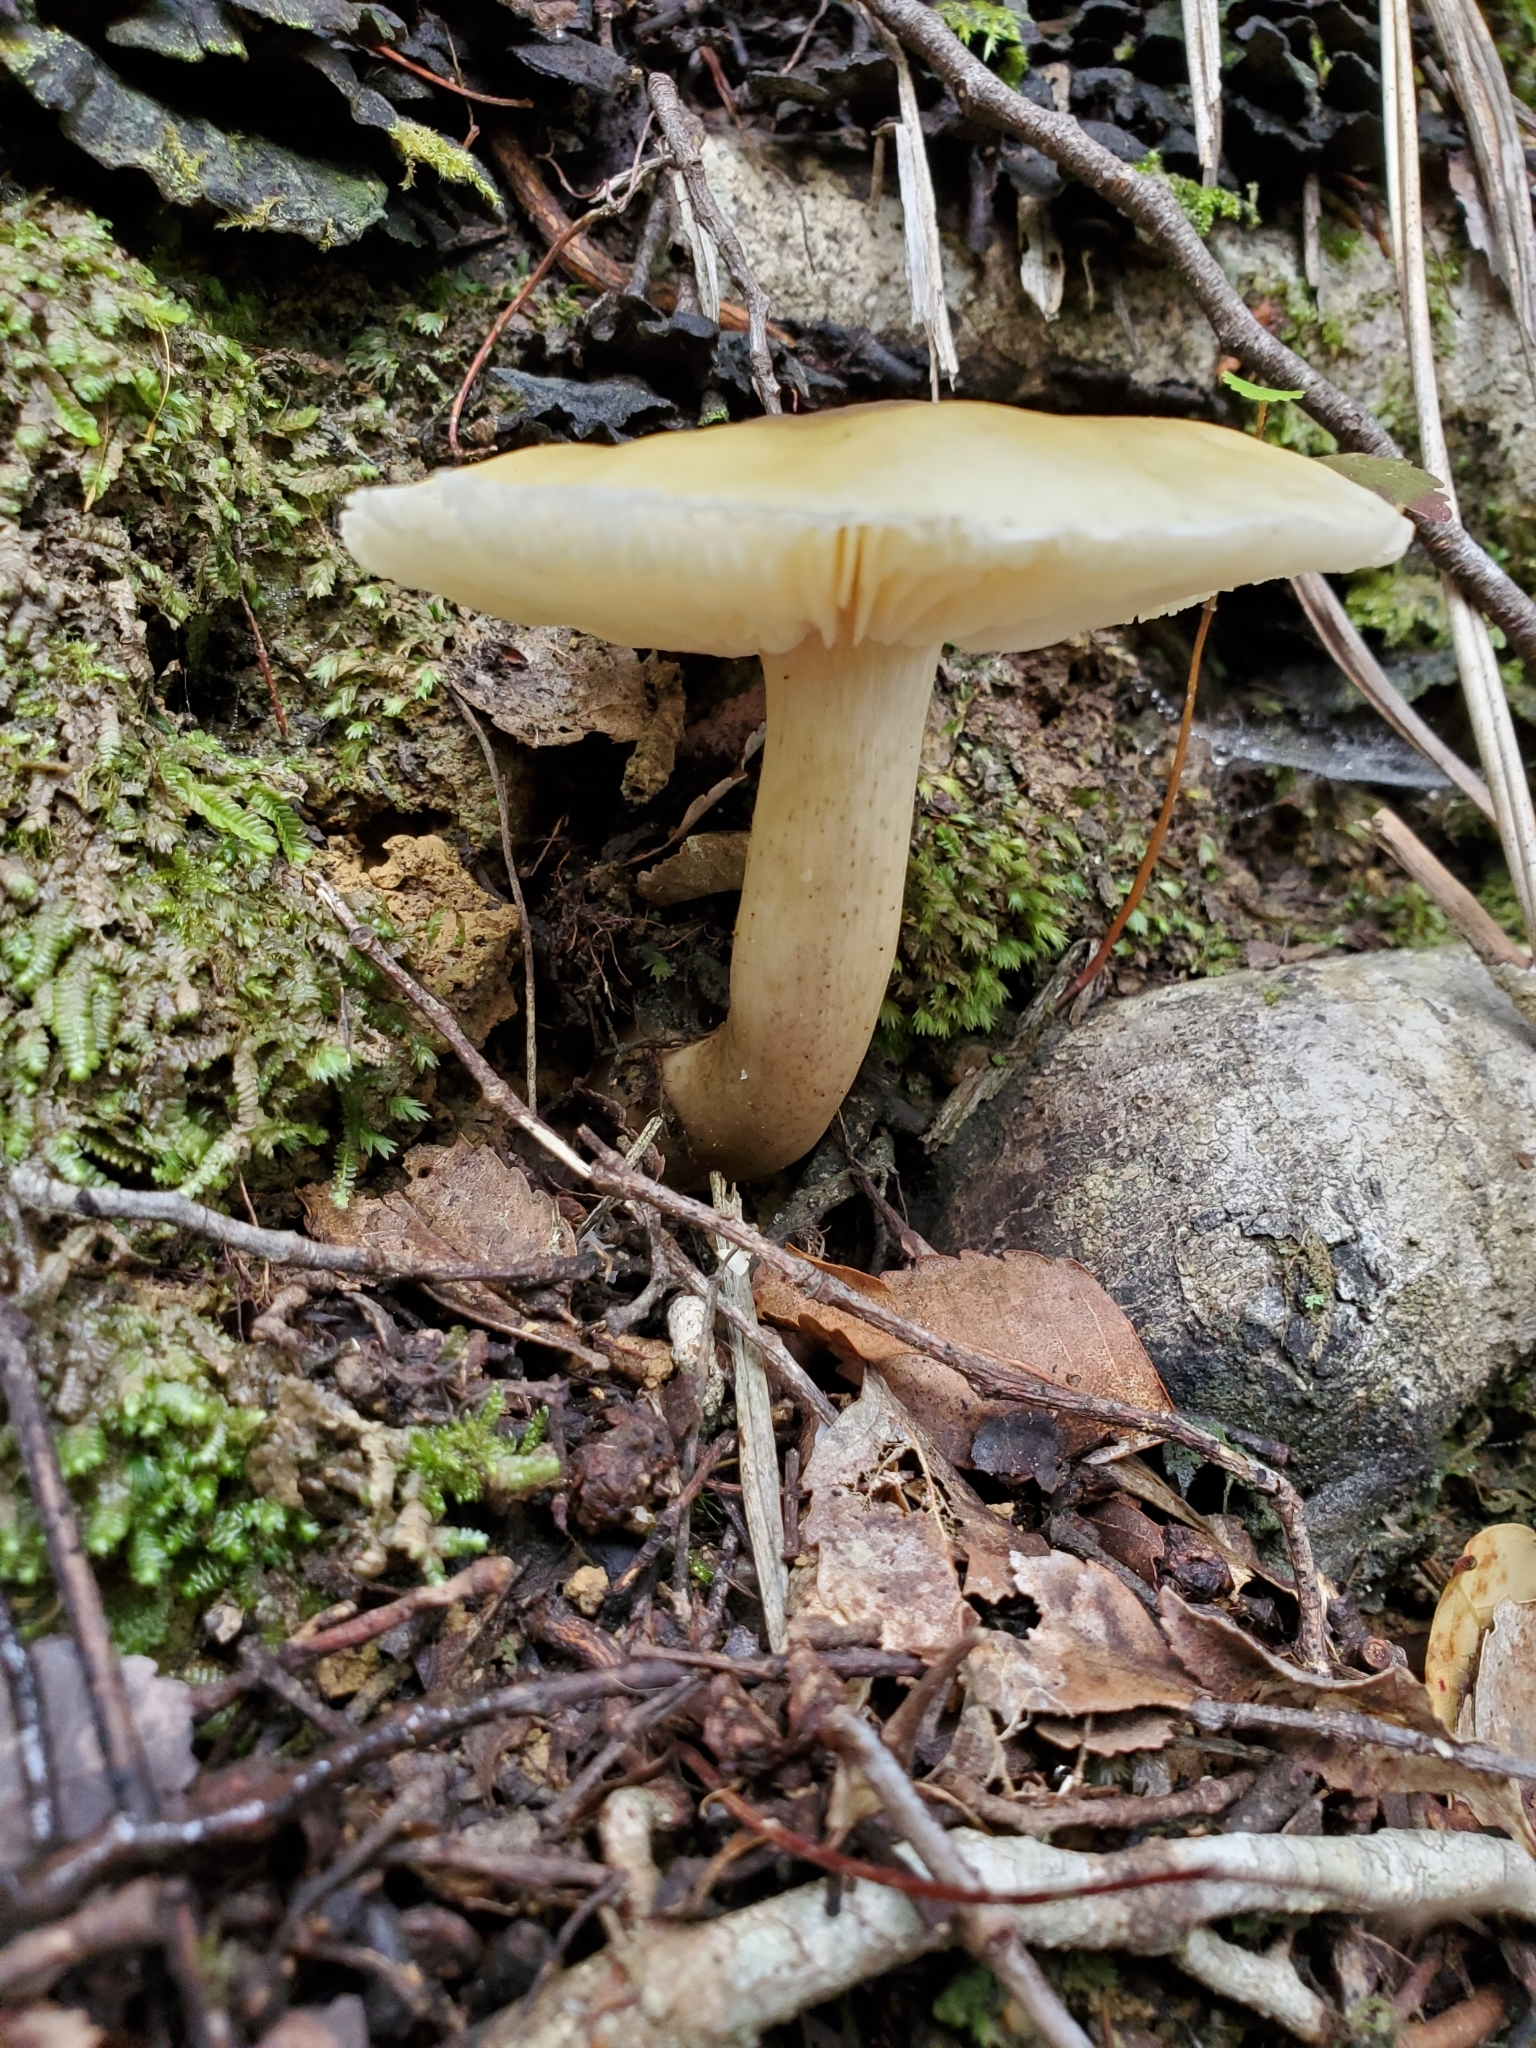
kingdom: Fungi
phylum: Basidiomycota
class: Agaricomycetes
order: Agaricales
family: Tricholomataceae
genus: Tricholoma
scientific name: Tricholoma viridiolivaceum
